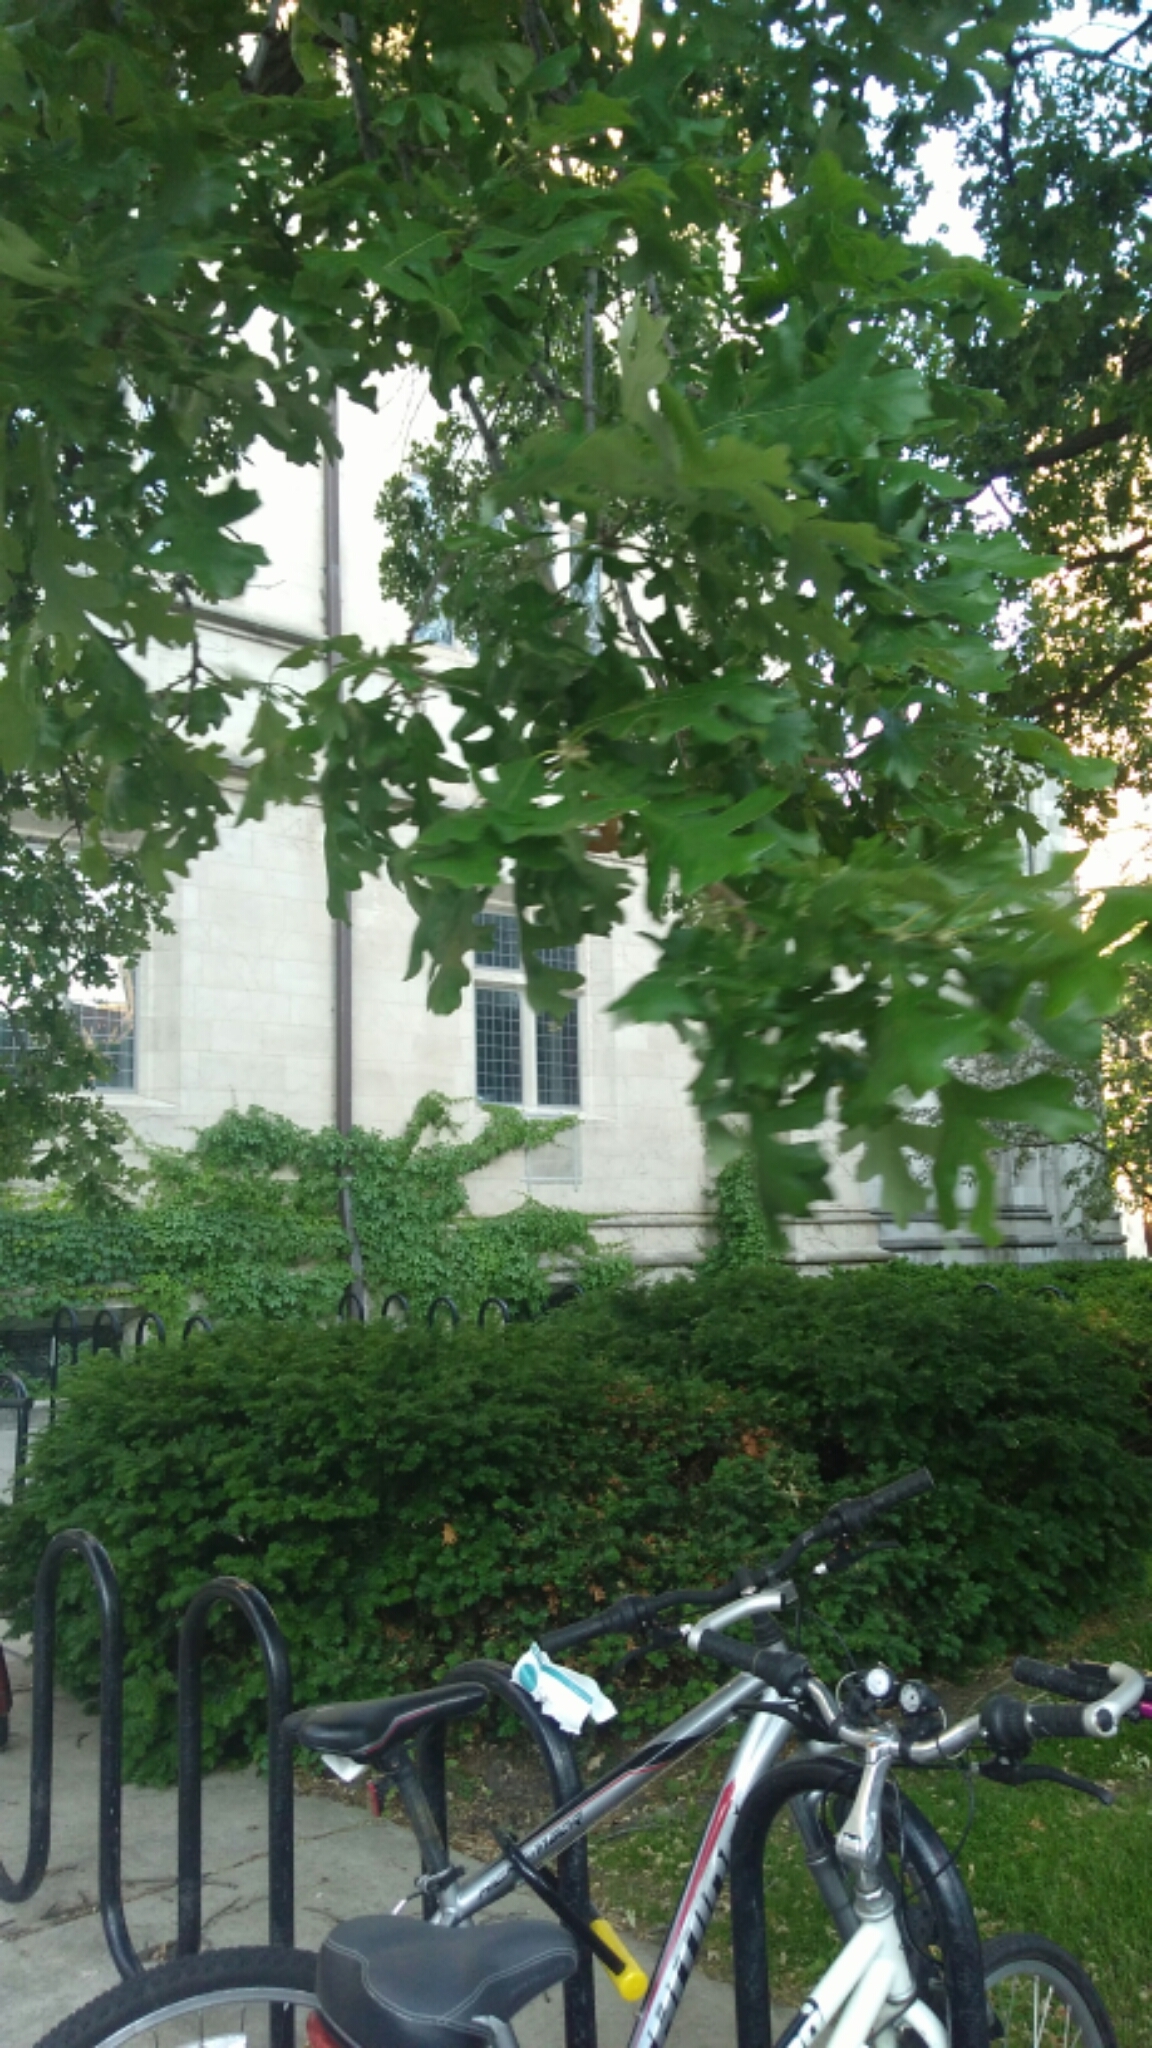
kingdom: Plantae
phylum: Tracheophyta
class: Magnoliopsida
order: Fagales
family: Fagaceae
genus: Quercus
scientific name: Quercus macrocarpa
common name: Bur oak
